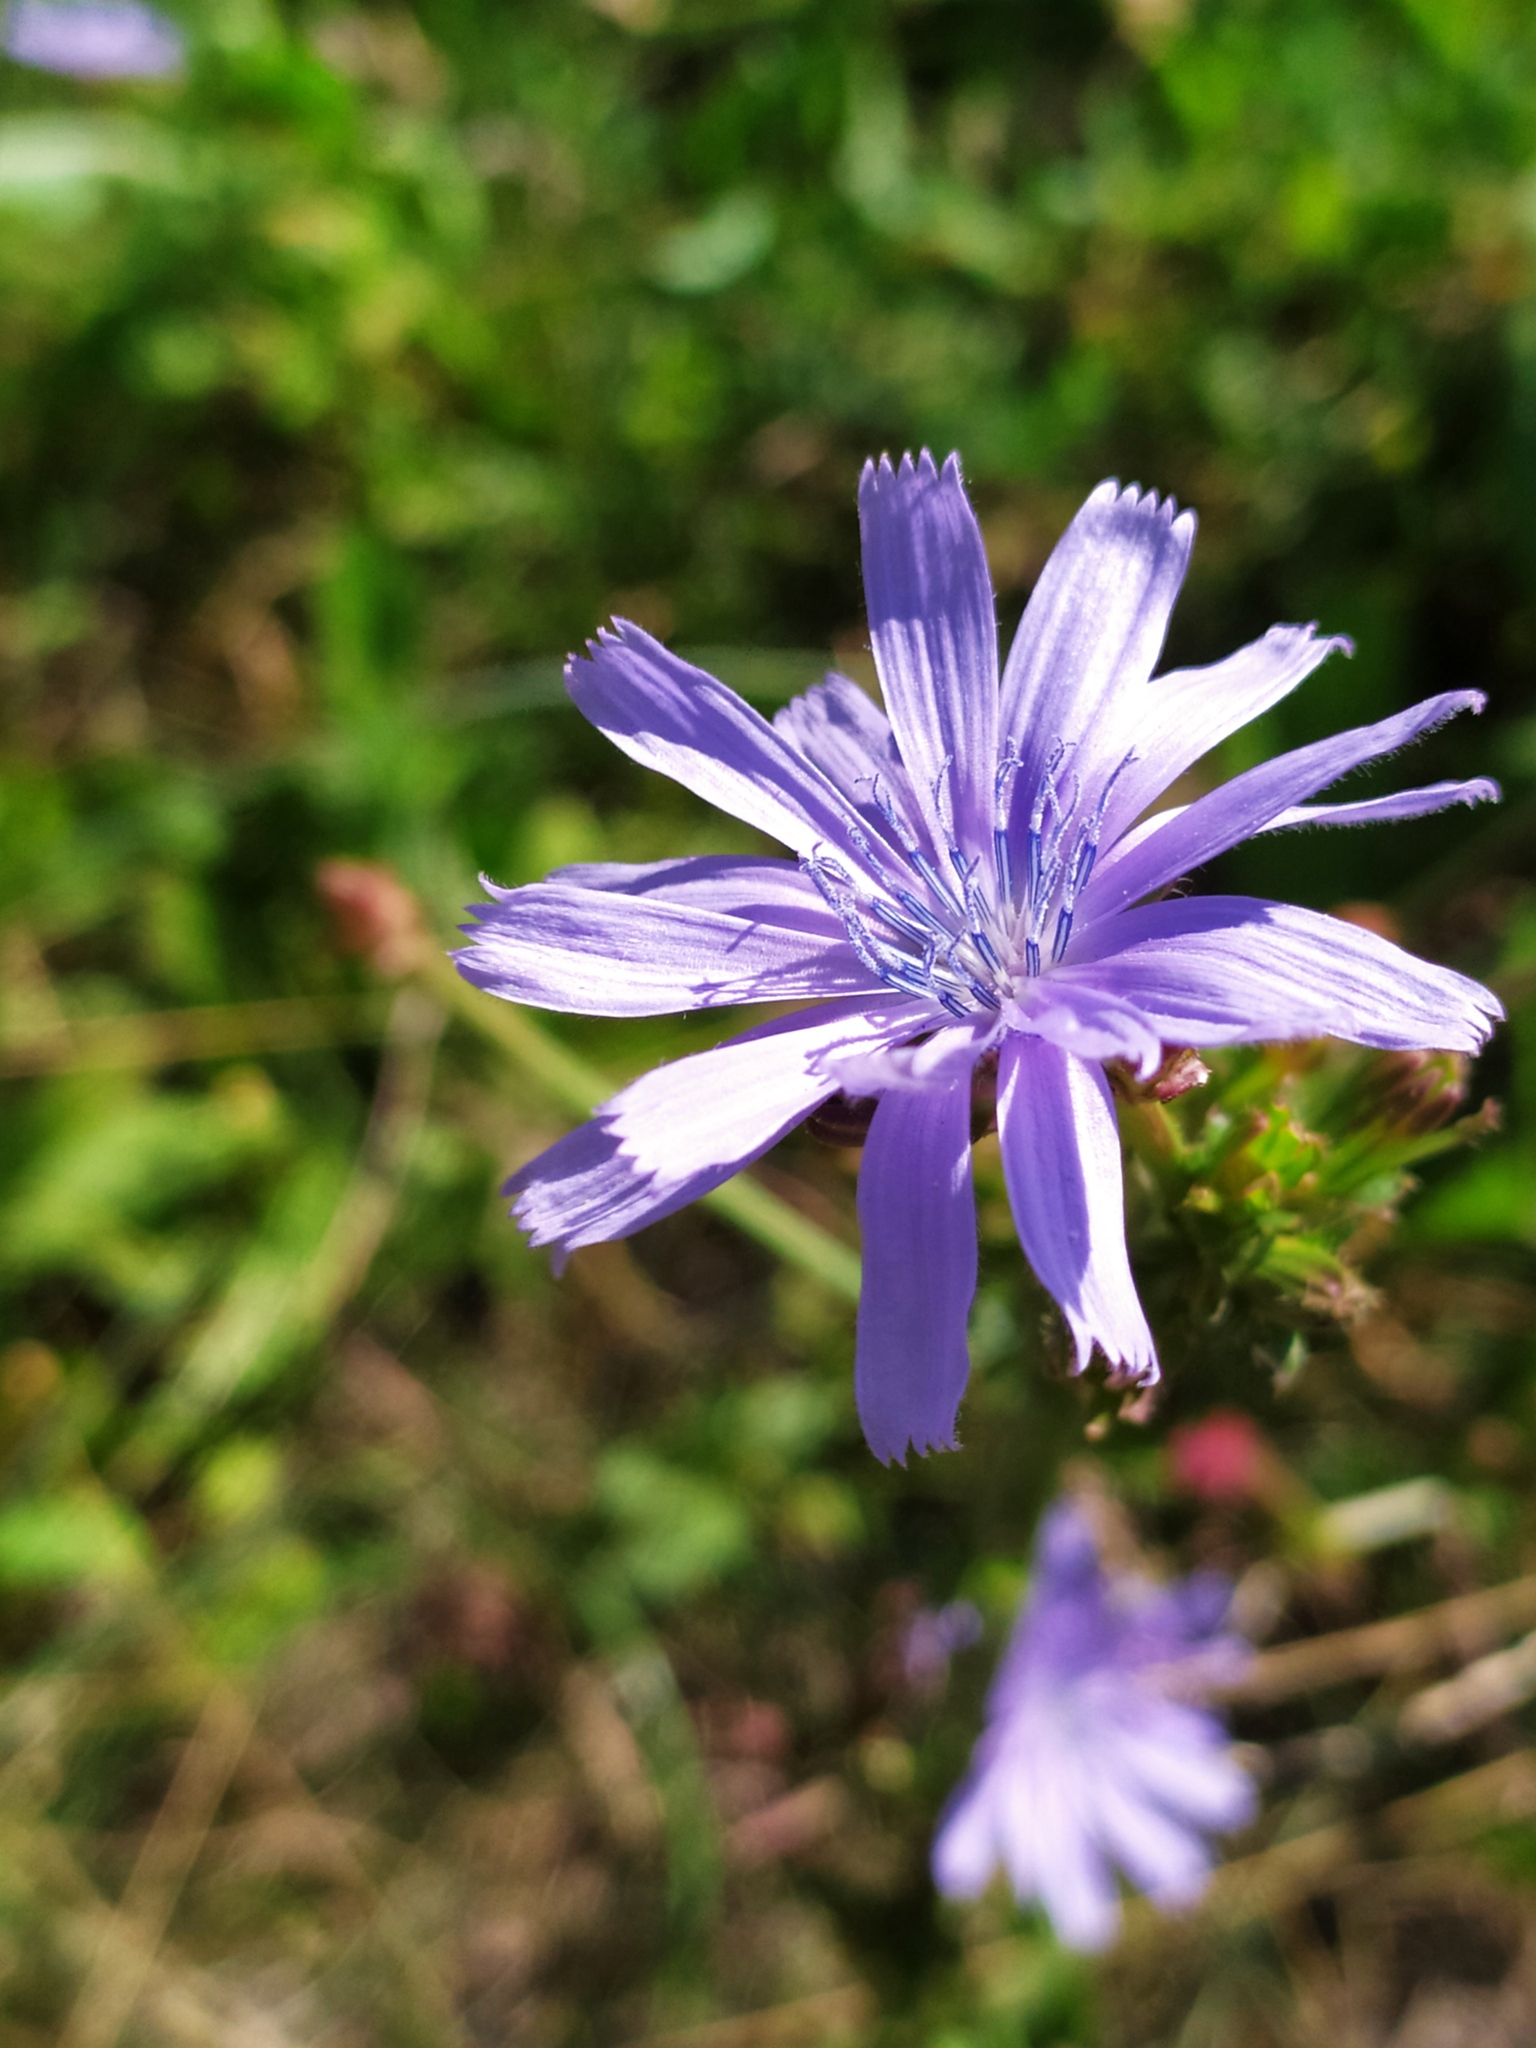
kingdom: Plantae
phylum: Tracheophyta
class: Magnoliopsida
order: Asterales
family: Asteraceae
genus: Cichorium
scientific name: Cichorium intybus
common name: Chicory
